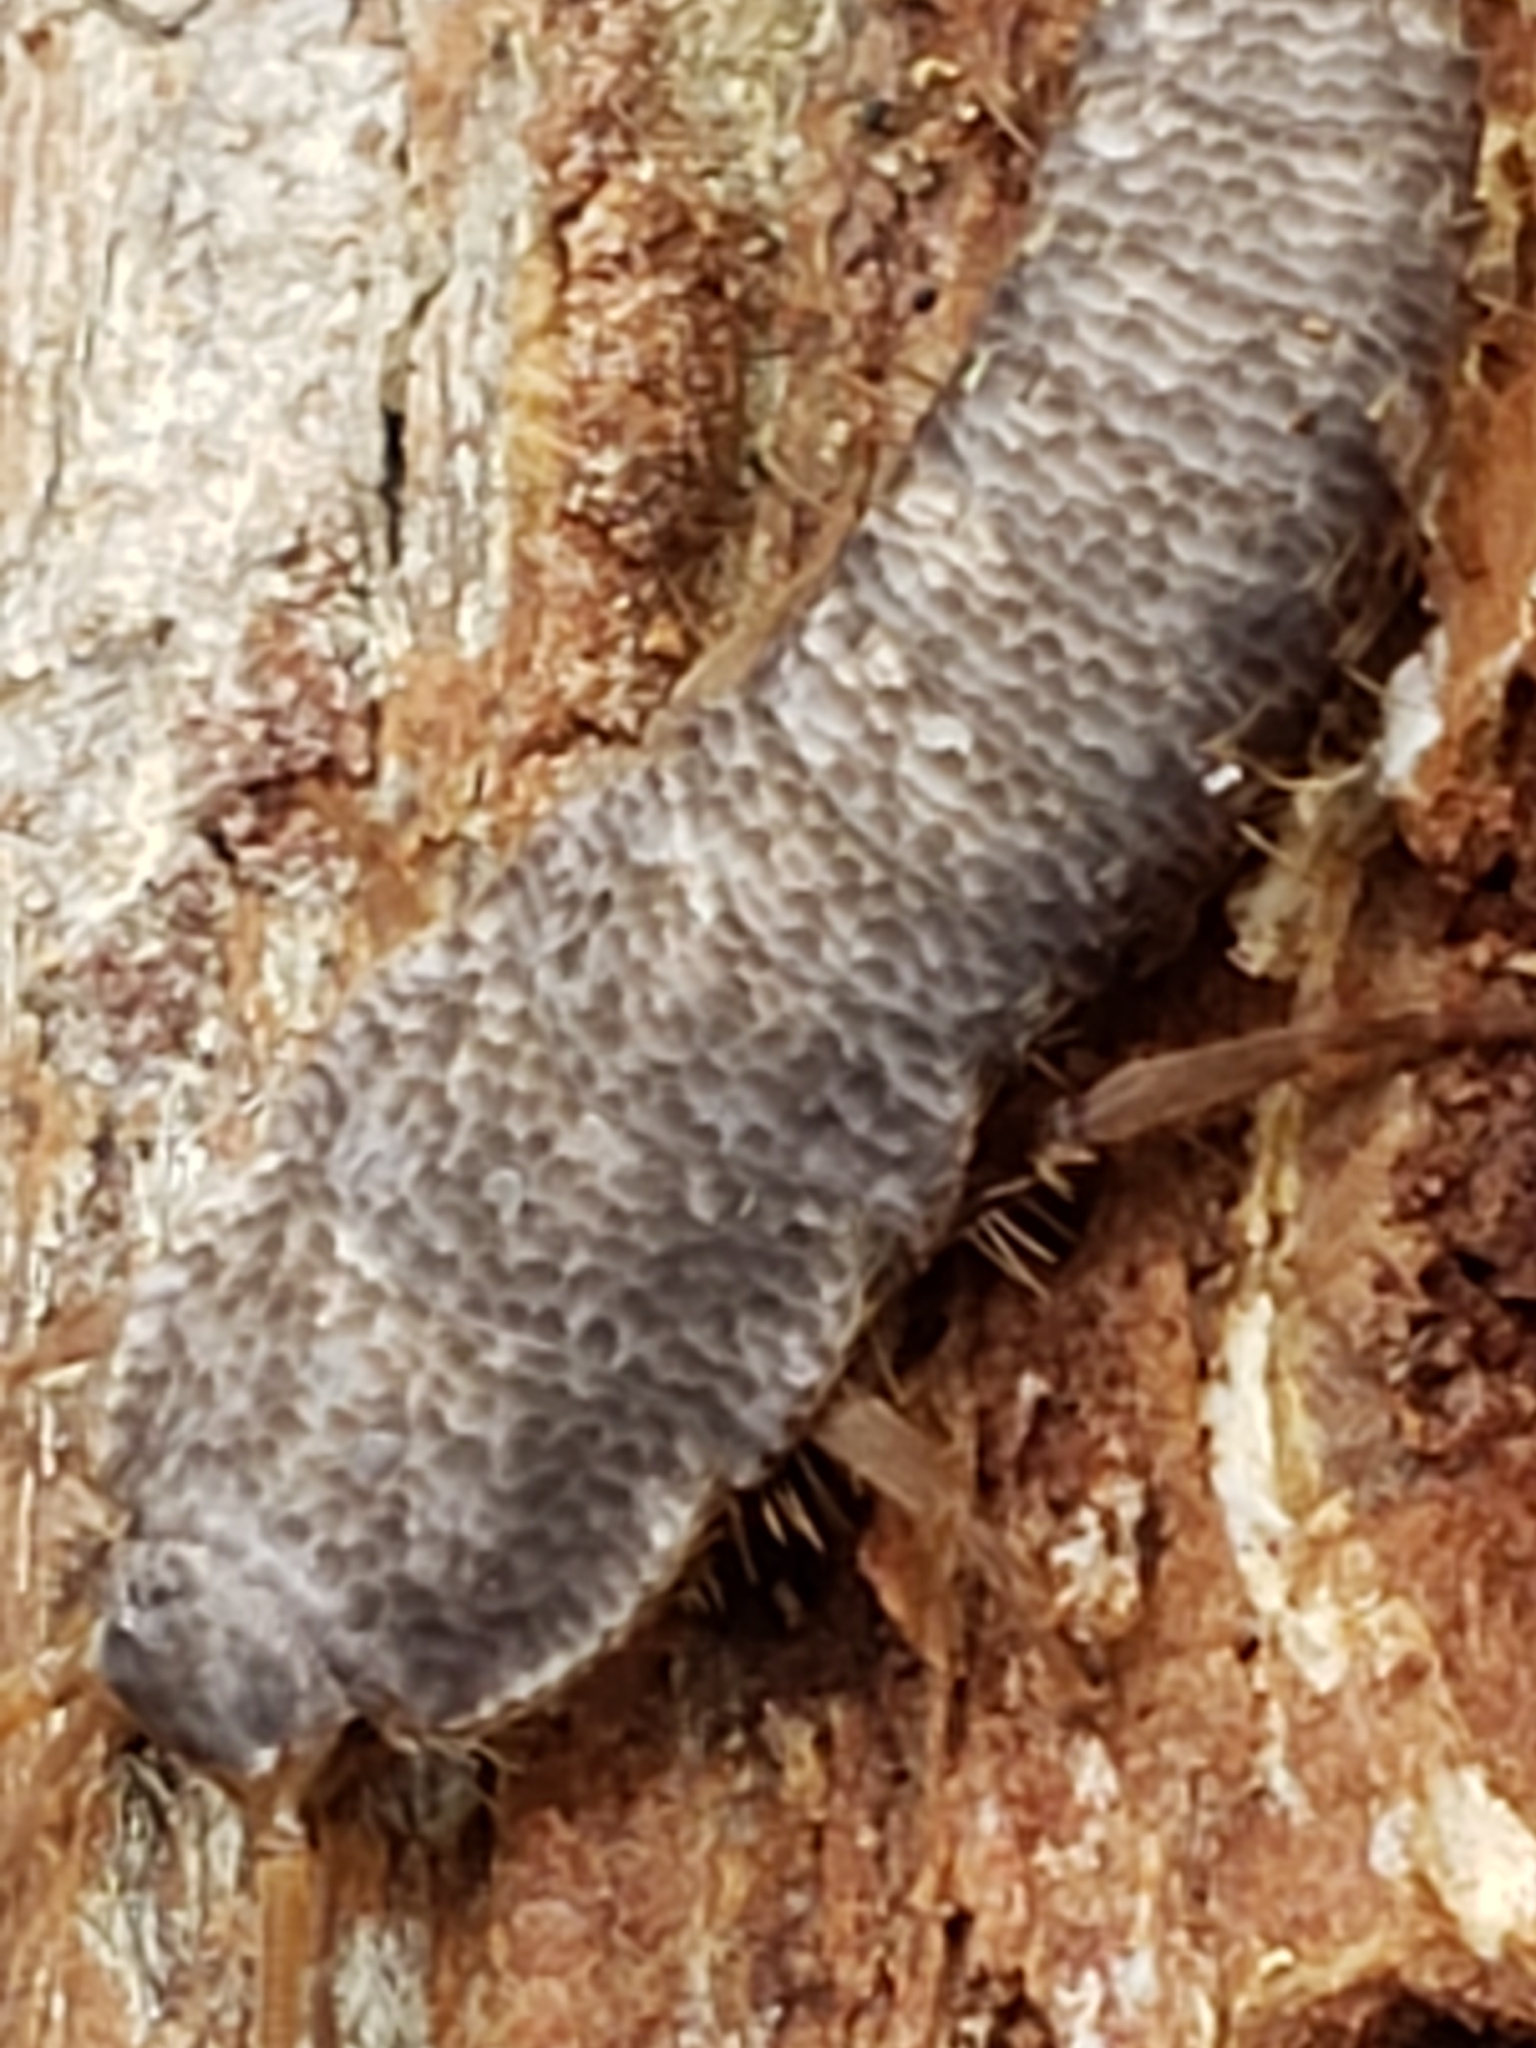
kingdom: Animalia
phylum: Arthropoda
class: Insecta
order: Zygentoma
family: Lepismatidae
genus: Allacrotelsa
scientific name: Allacrotelsa spinulata
